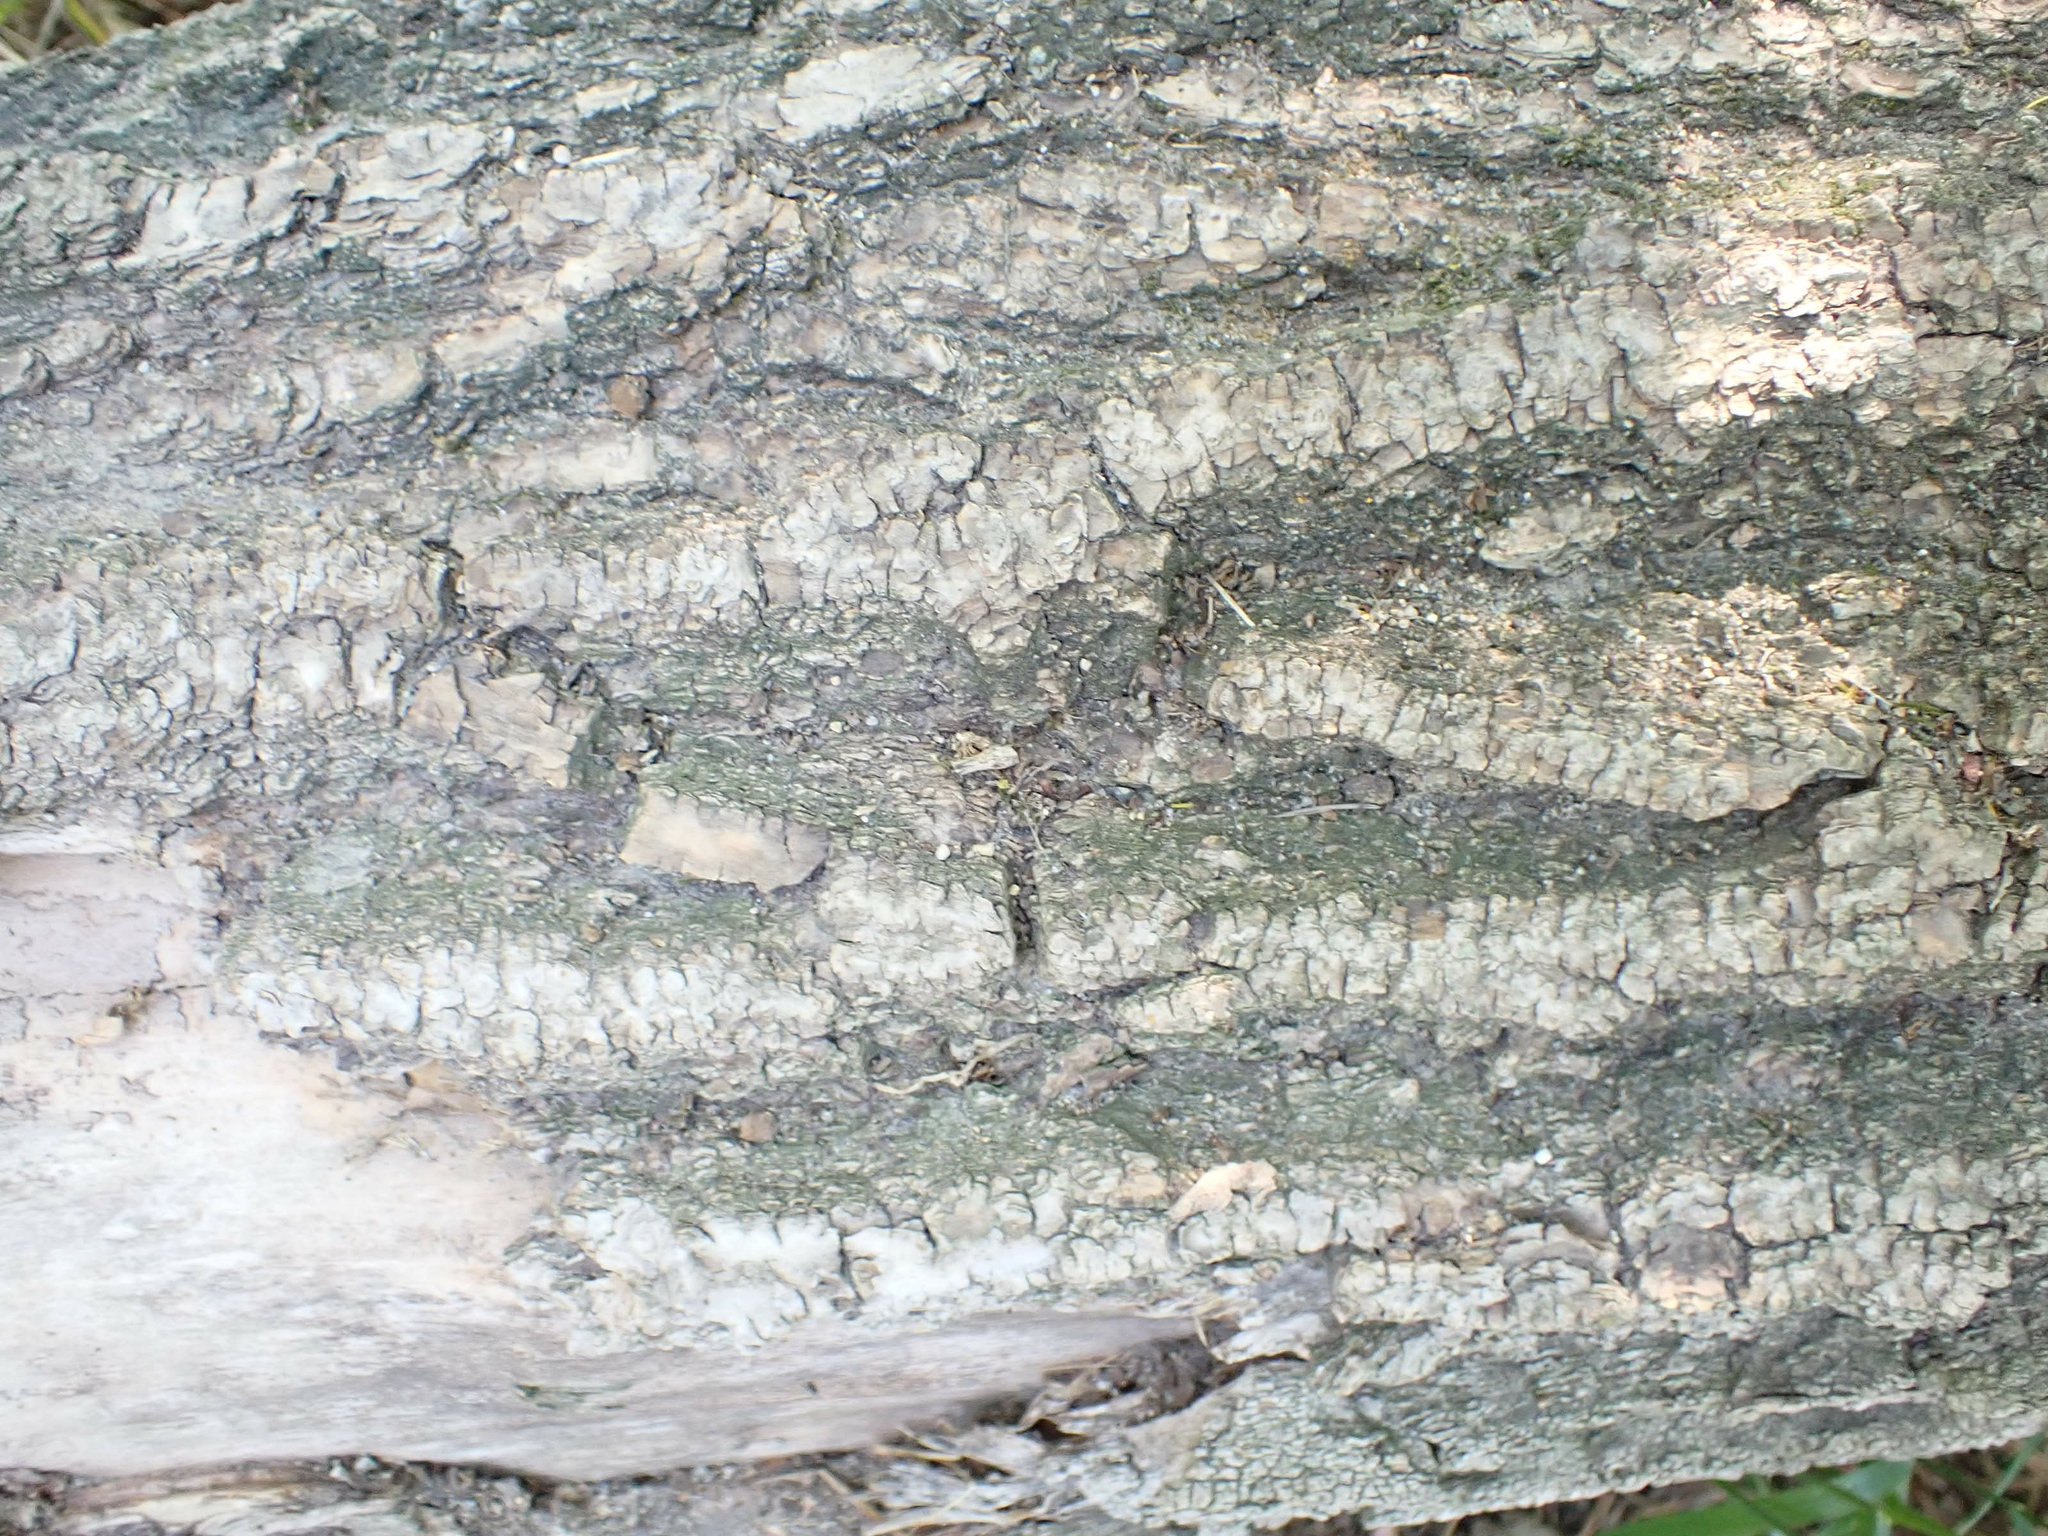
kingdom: Plantae
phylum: Tracheophyta
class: Magnoliopsida
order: Sapindales
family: Sapindaceae
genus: Acer
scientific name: Acer negundo
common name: Ashleaf maple
